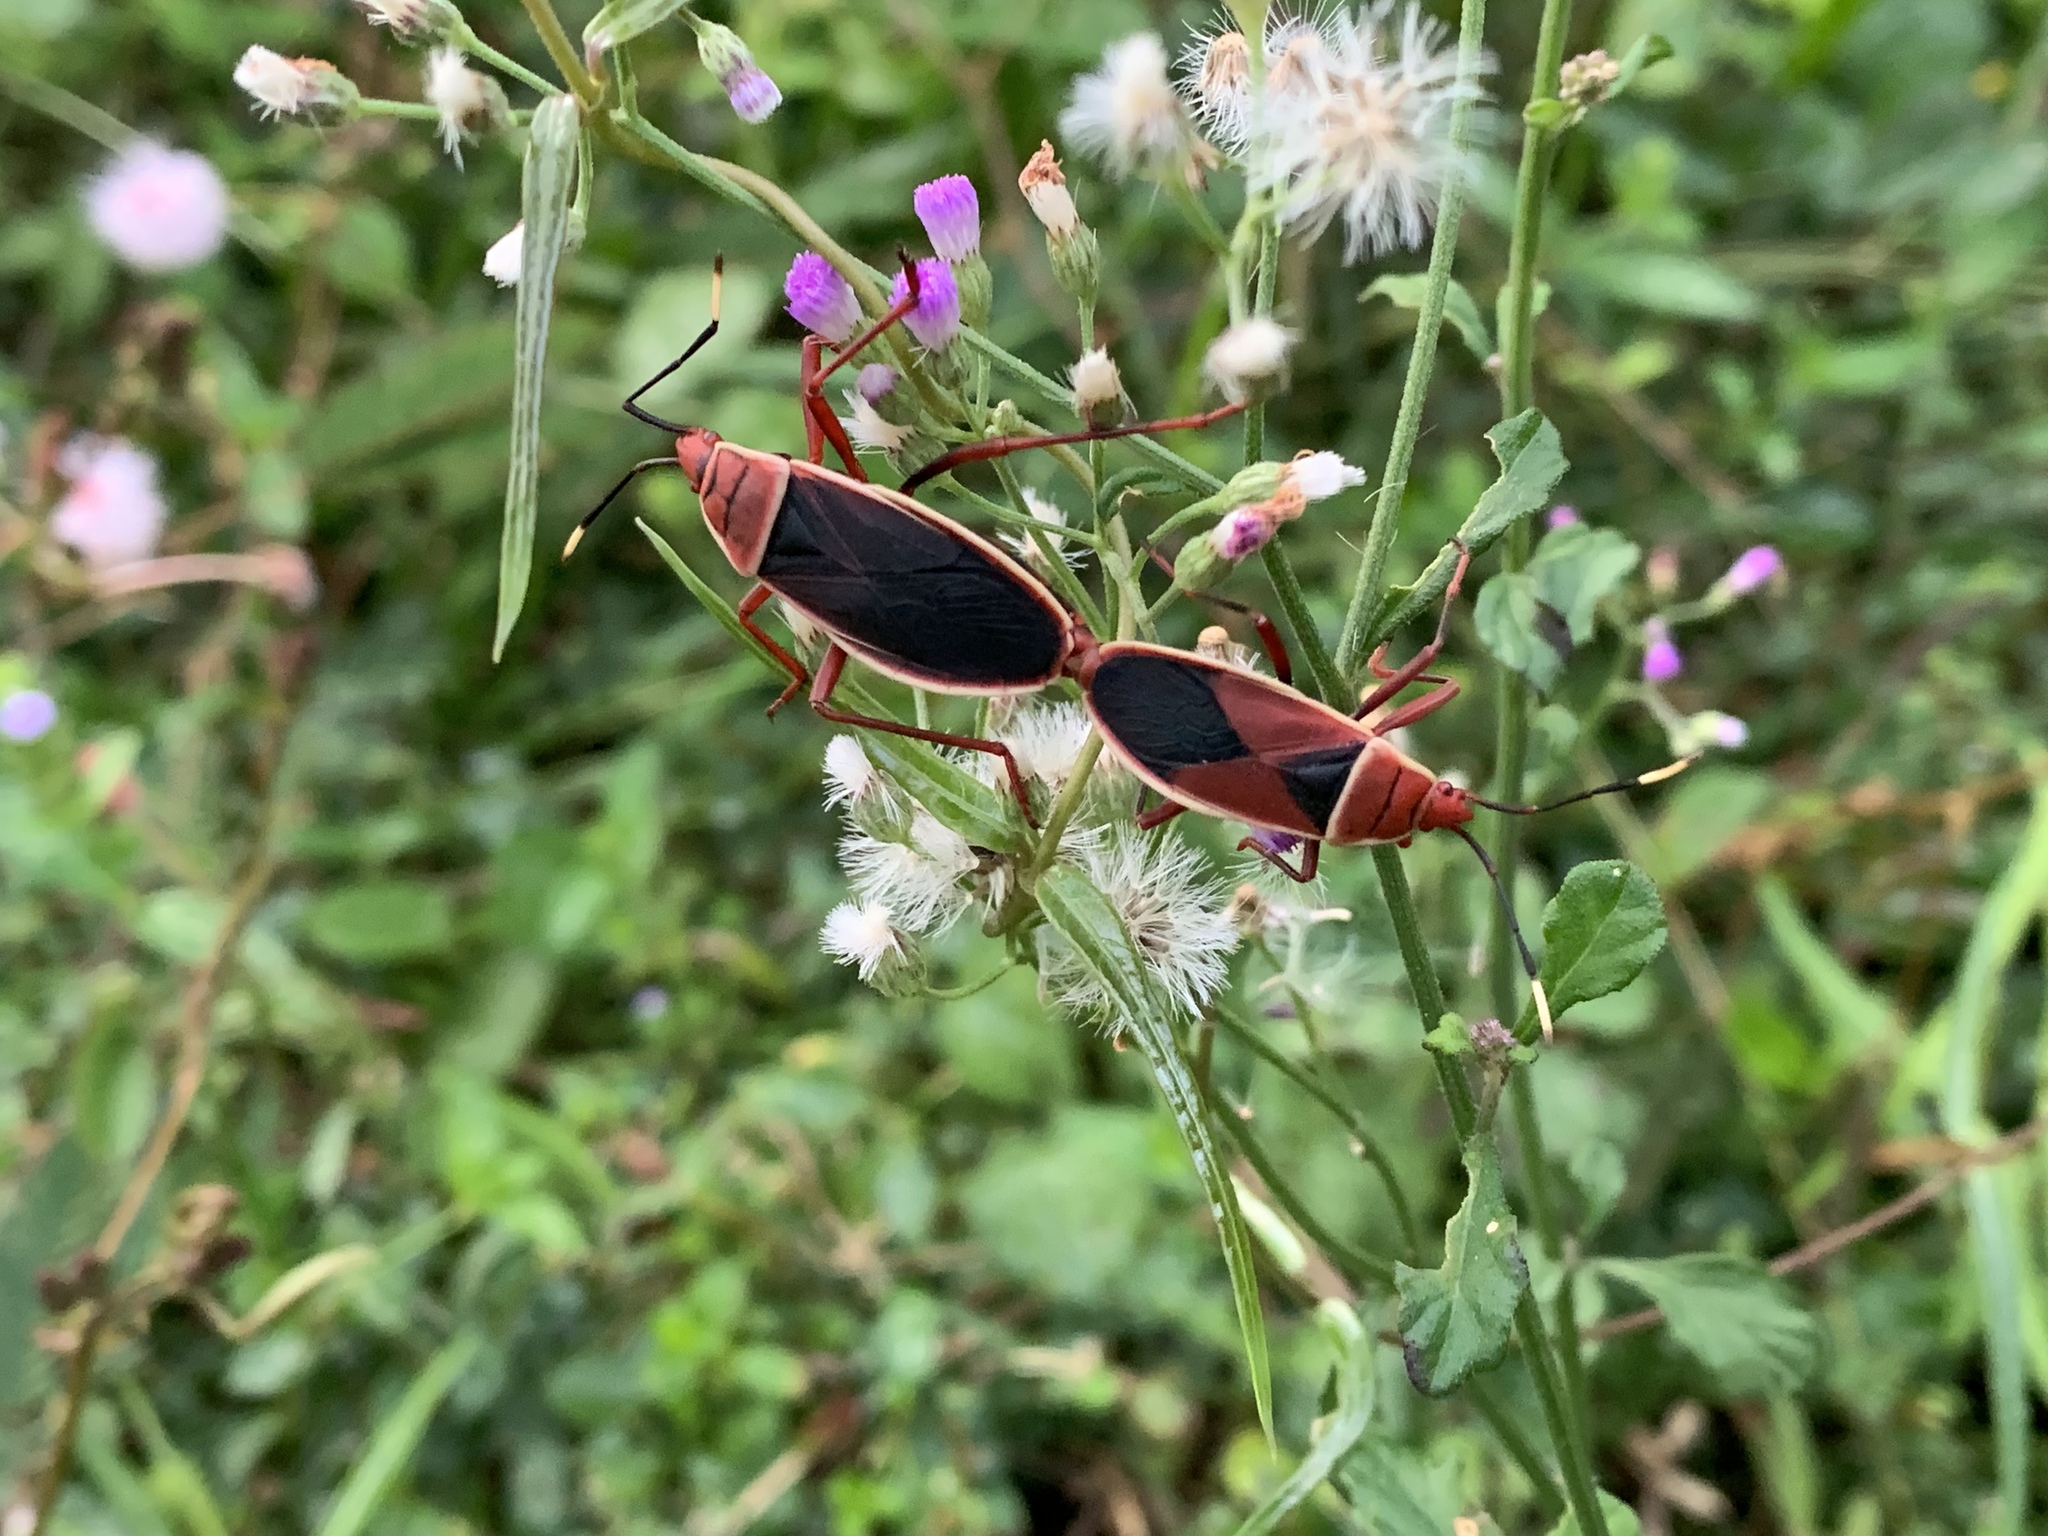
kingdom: Animalia
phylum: Arthropoda
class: Insecta
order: Hemiptera
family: Pyrrhocoridae
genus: Probergrothius
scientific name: Probergrothius varicornis
